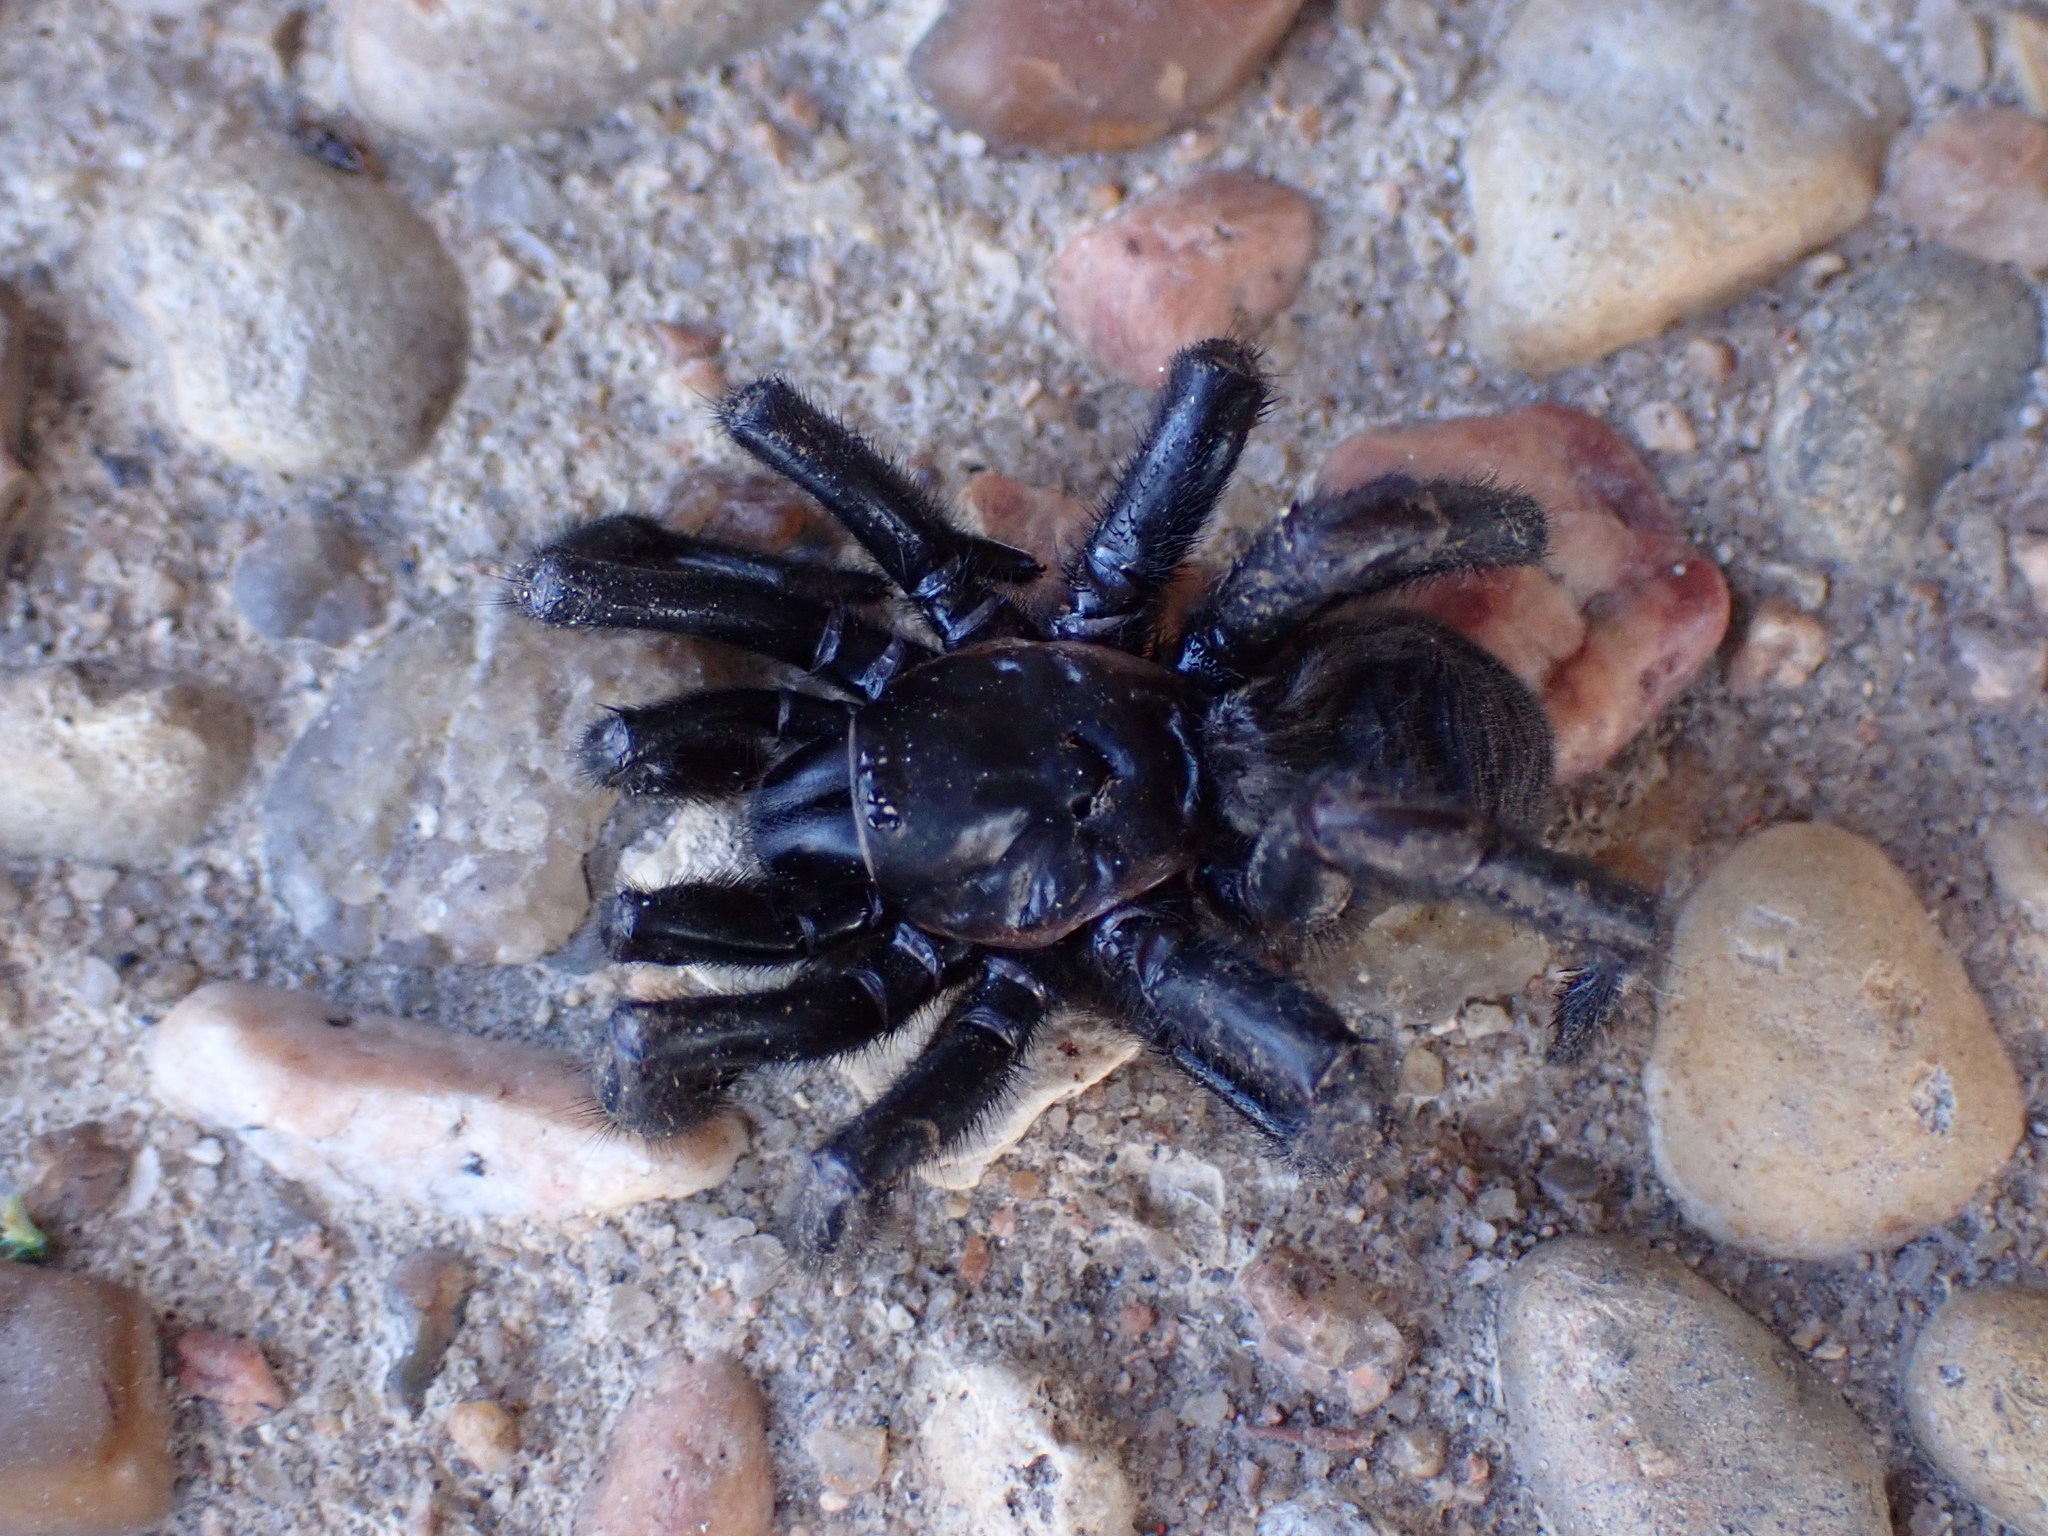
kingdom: Animalia
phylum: Arthropoda
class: Arachnida
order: Araneae
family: Euctenizidae
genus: Eucteniza
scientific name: Eucteniza relata
